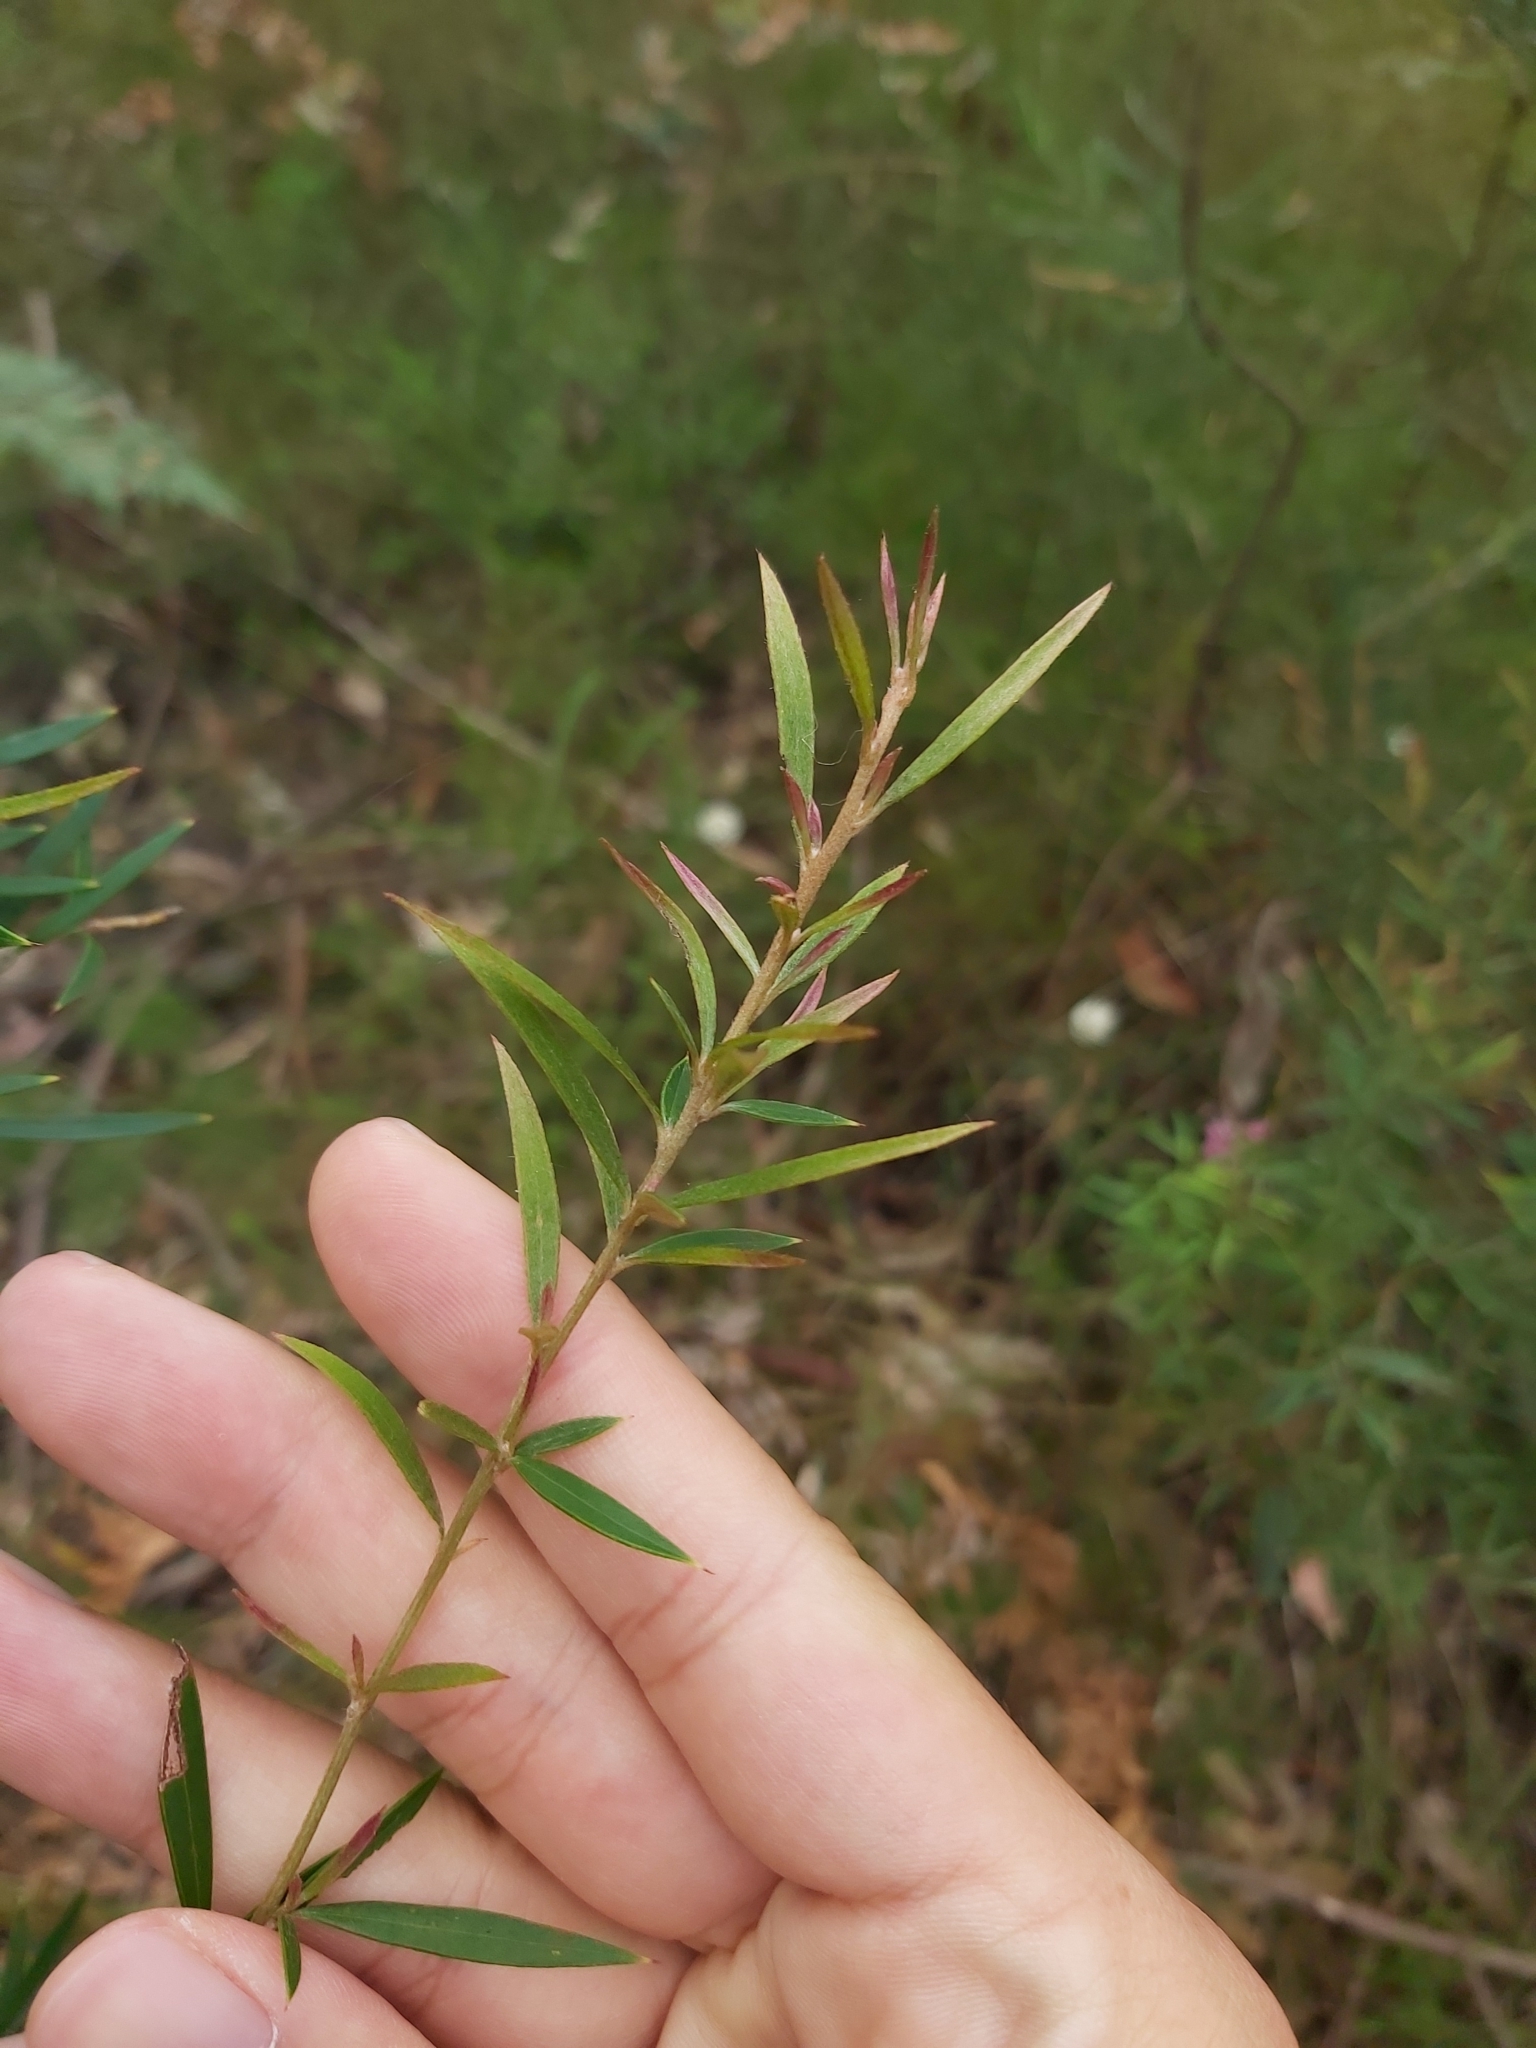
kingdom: Plantae
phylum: Tracheophyta
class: Magnoliopsida
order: Proteales
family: Proteaceae
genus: Grevillea
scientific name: Grevillea sericea
